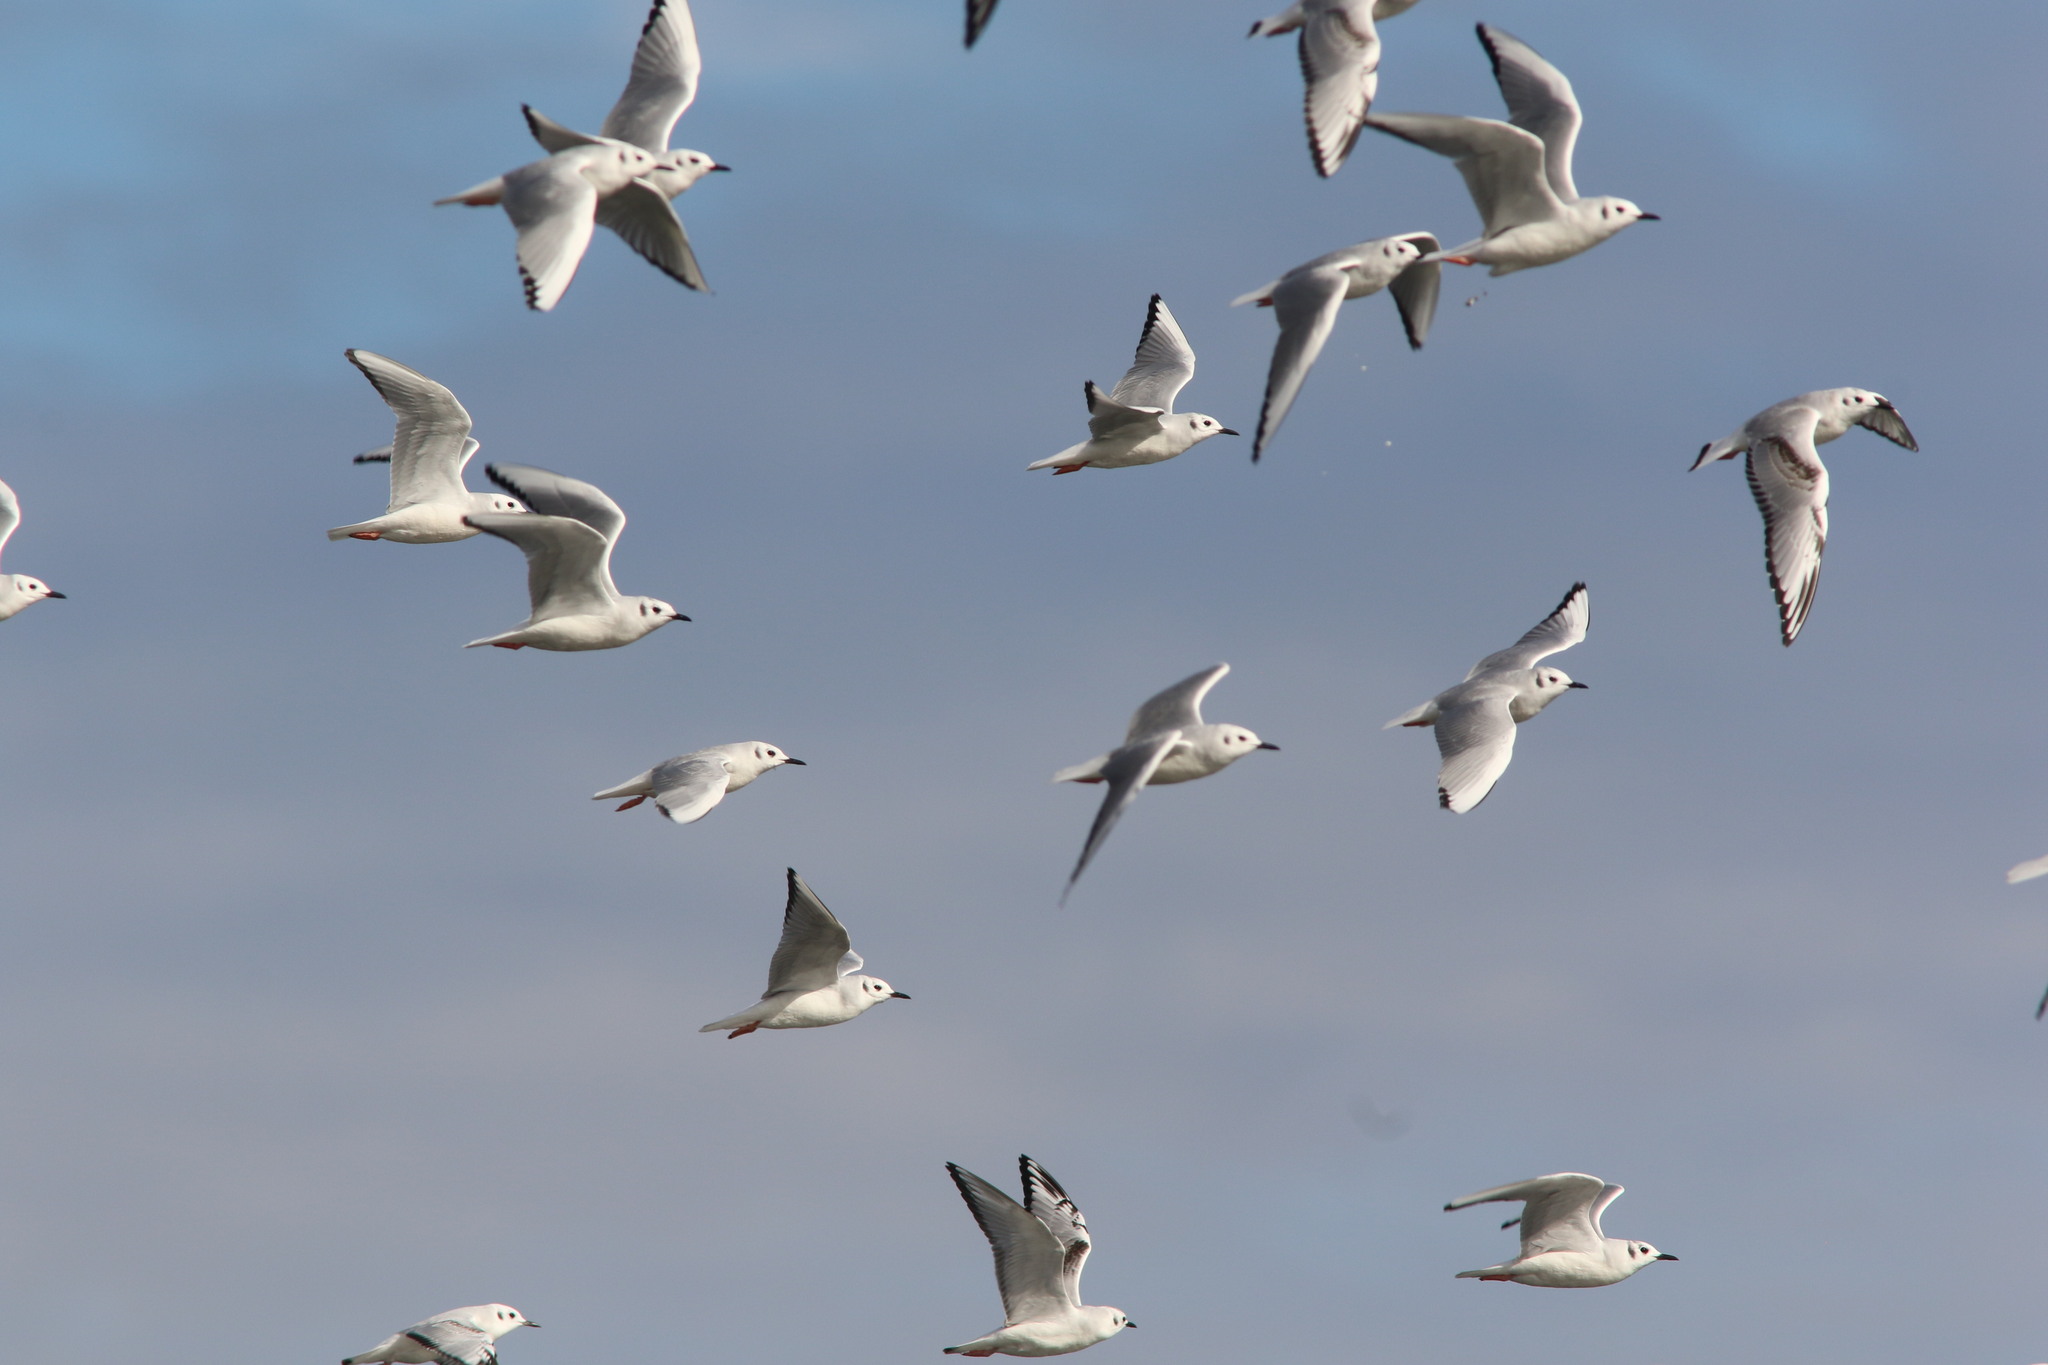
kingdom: Animalia
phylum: Chordata
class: Aves
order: Charadriiformes
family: Laridae
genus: Chroicocephalus
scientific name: Chroicocephalus philadelphia
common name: Bonaparte's gull
